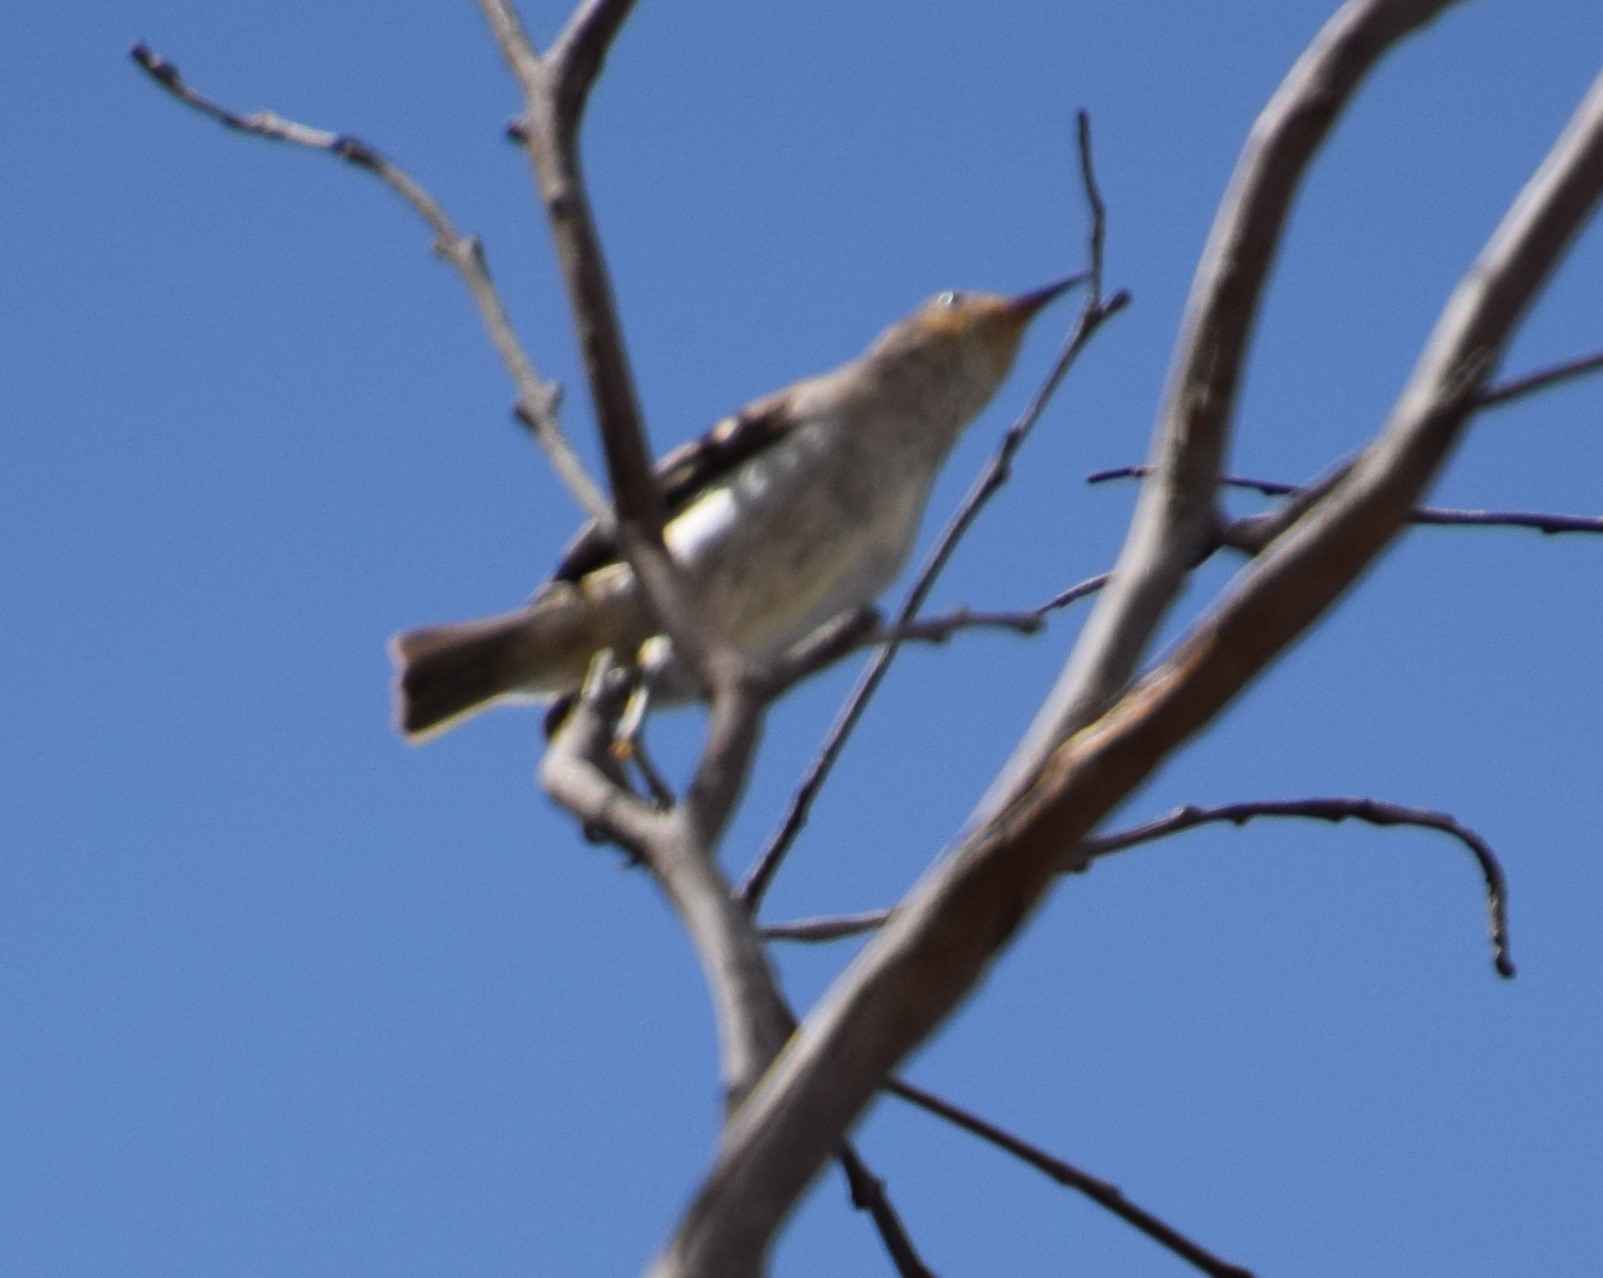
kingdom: Animalia
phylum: Chordata
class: Aves
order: Passeriformes
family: Meliphagidae
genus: Myzomela
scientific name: Myzomela sanguinolenta
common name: Scarlet myzomela
